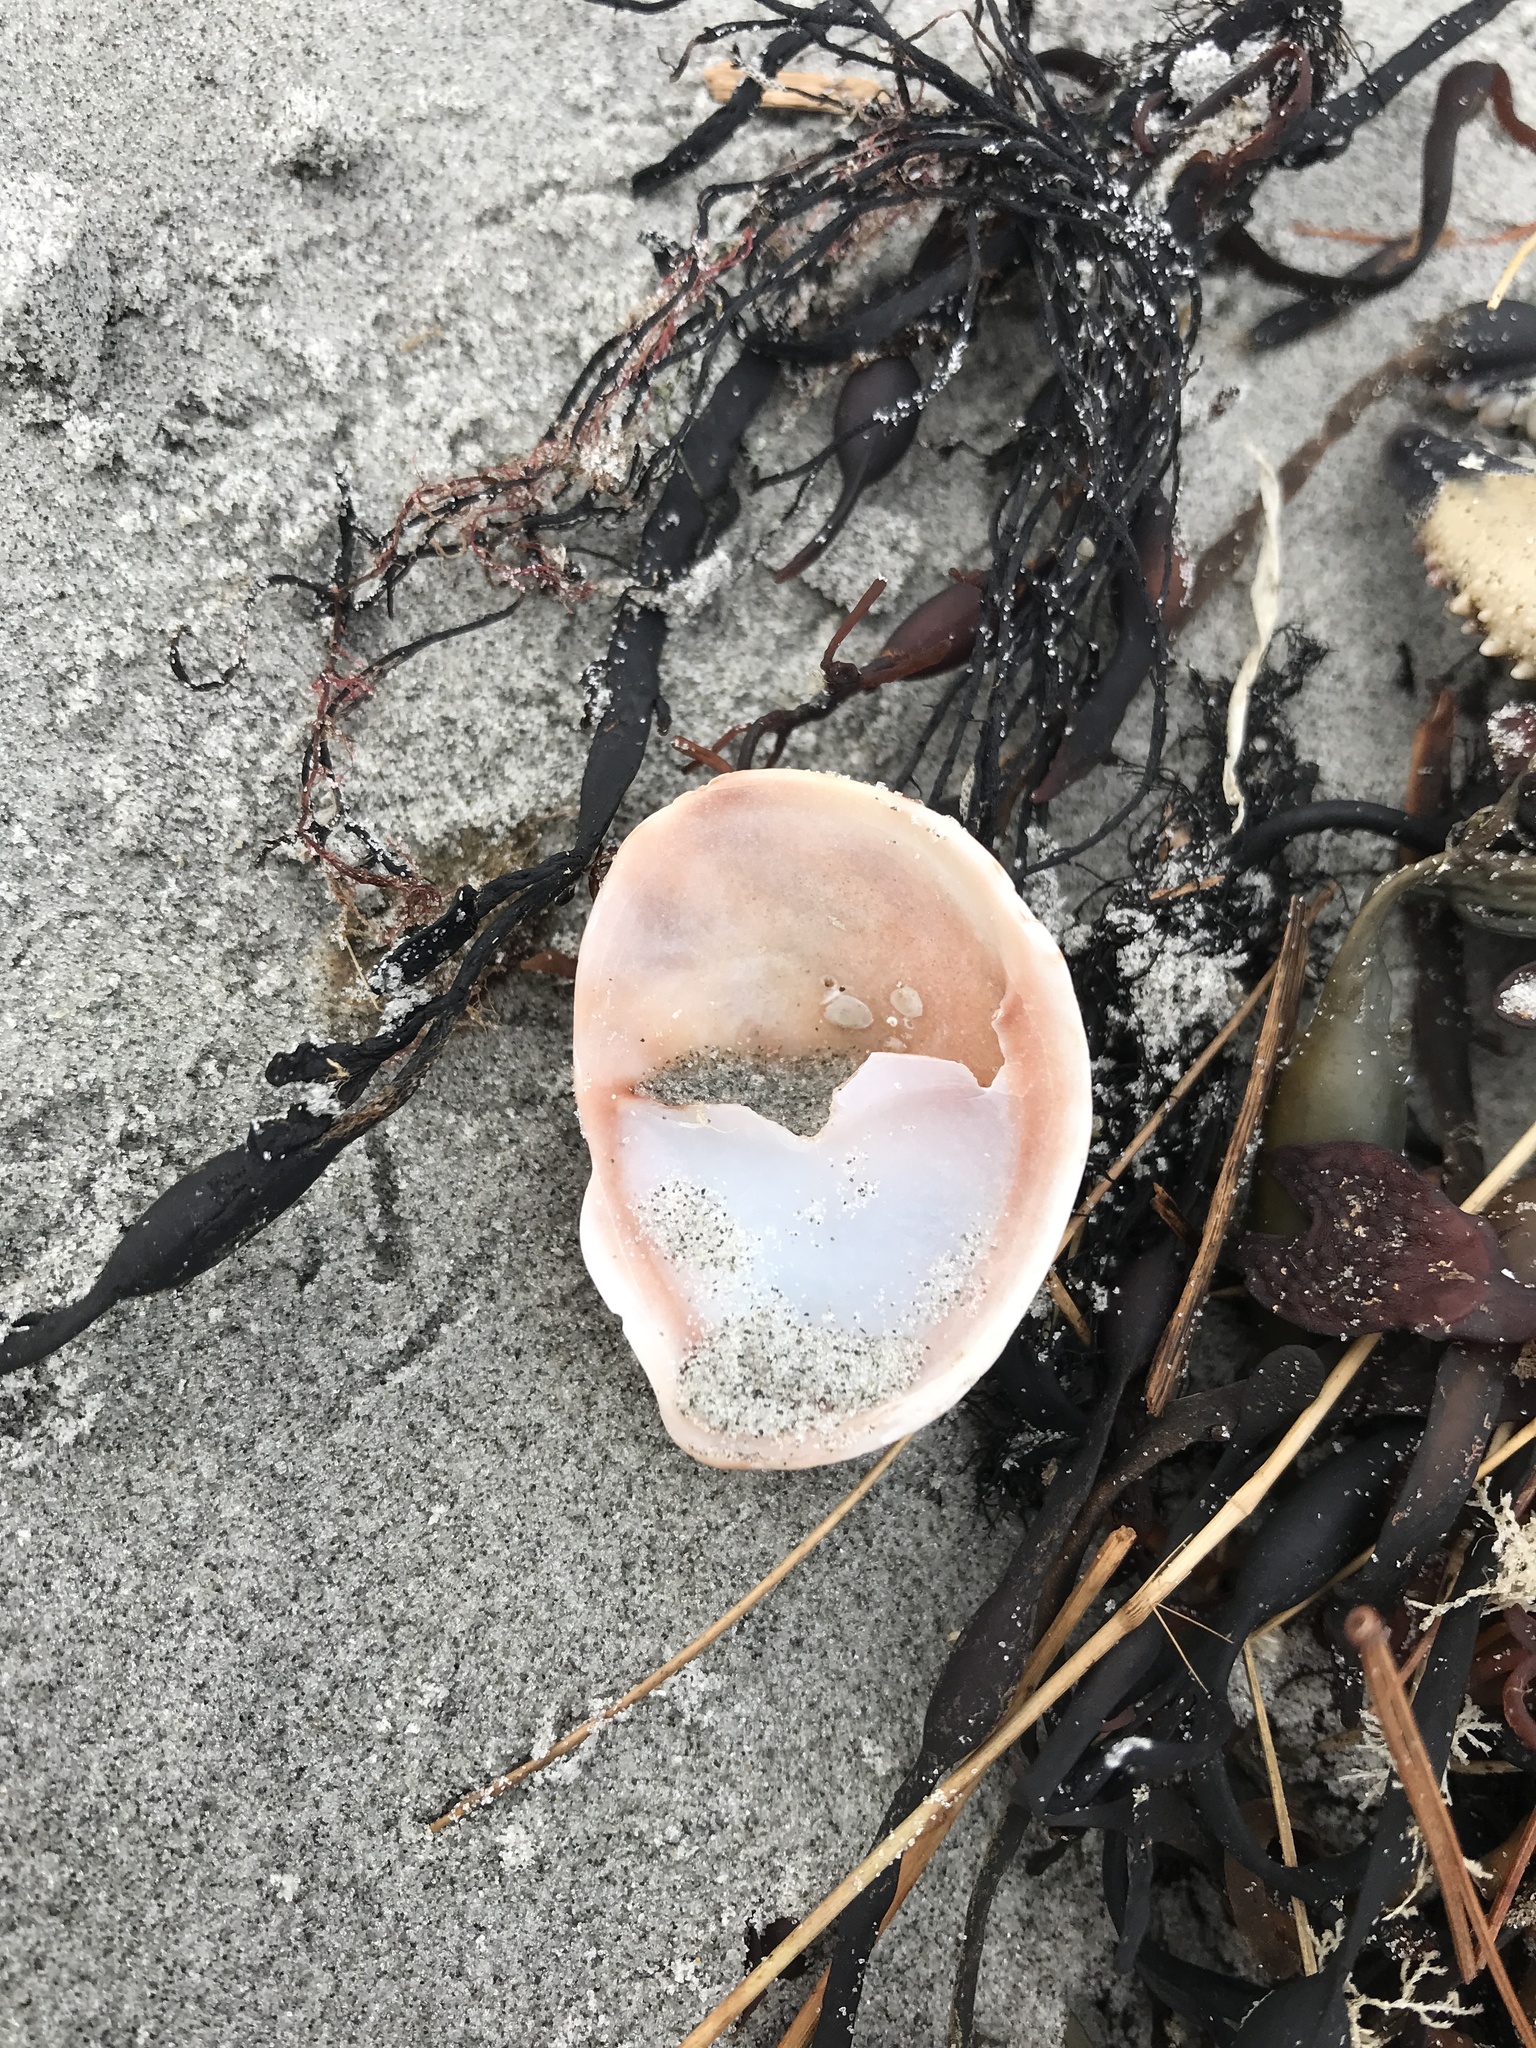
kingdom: Animalia
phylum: Mollusca
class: Gastropoda
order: Littorinimorpha
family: Calyptraeidae
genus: Crepidula
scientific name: Crepidula fornicata
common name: Slipper limpet
